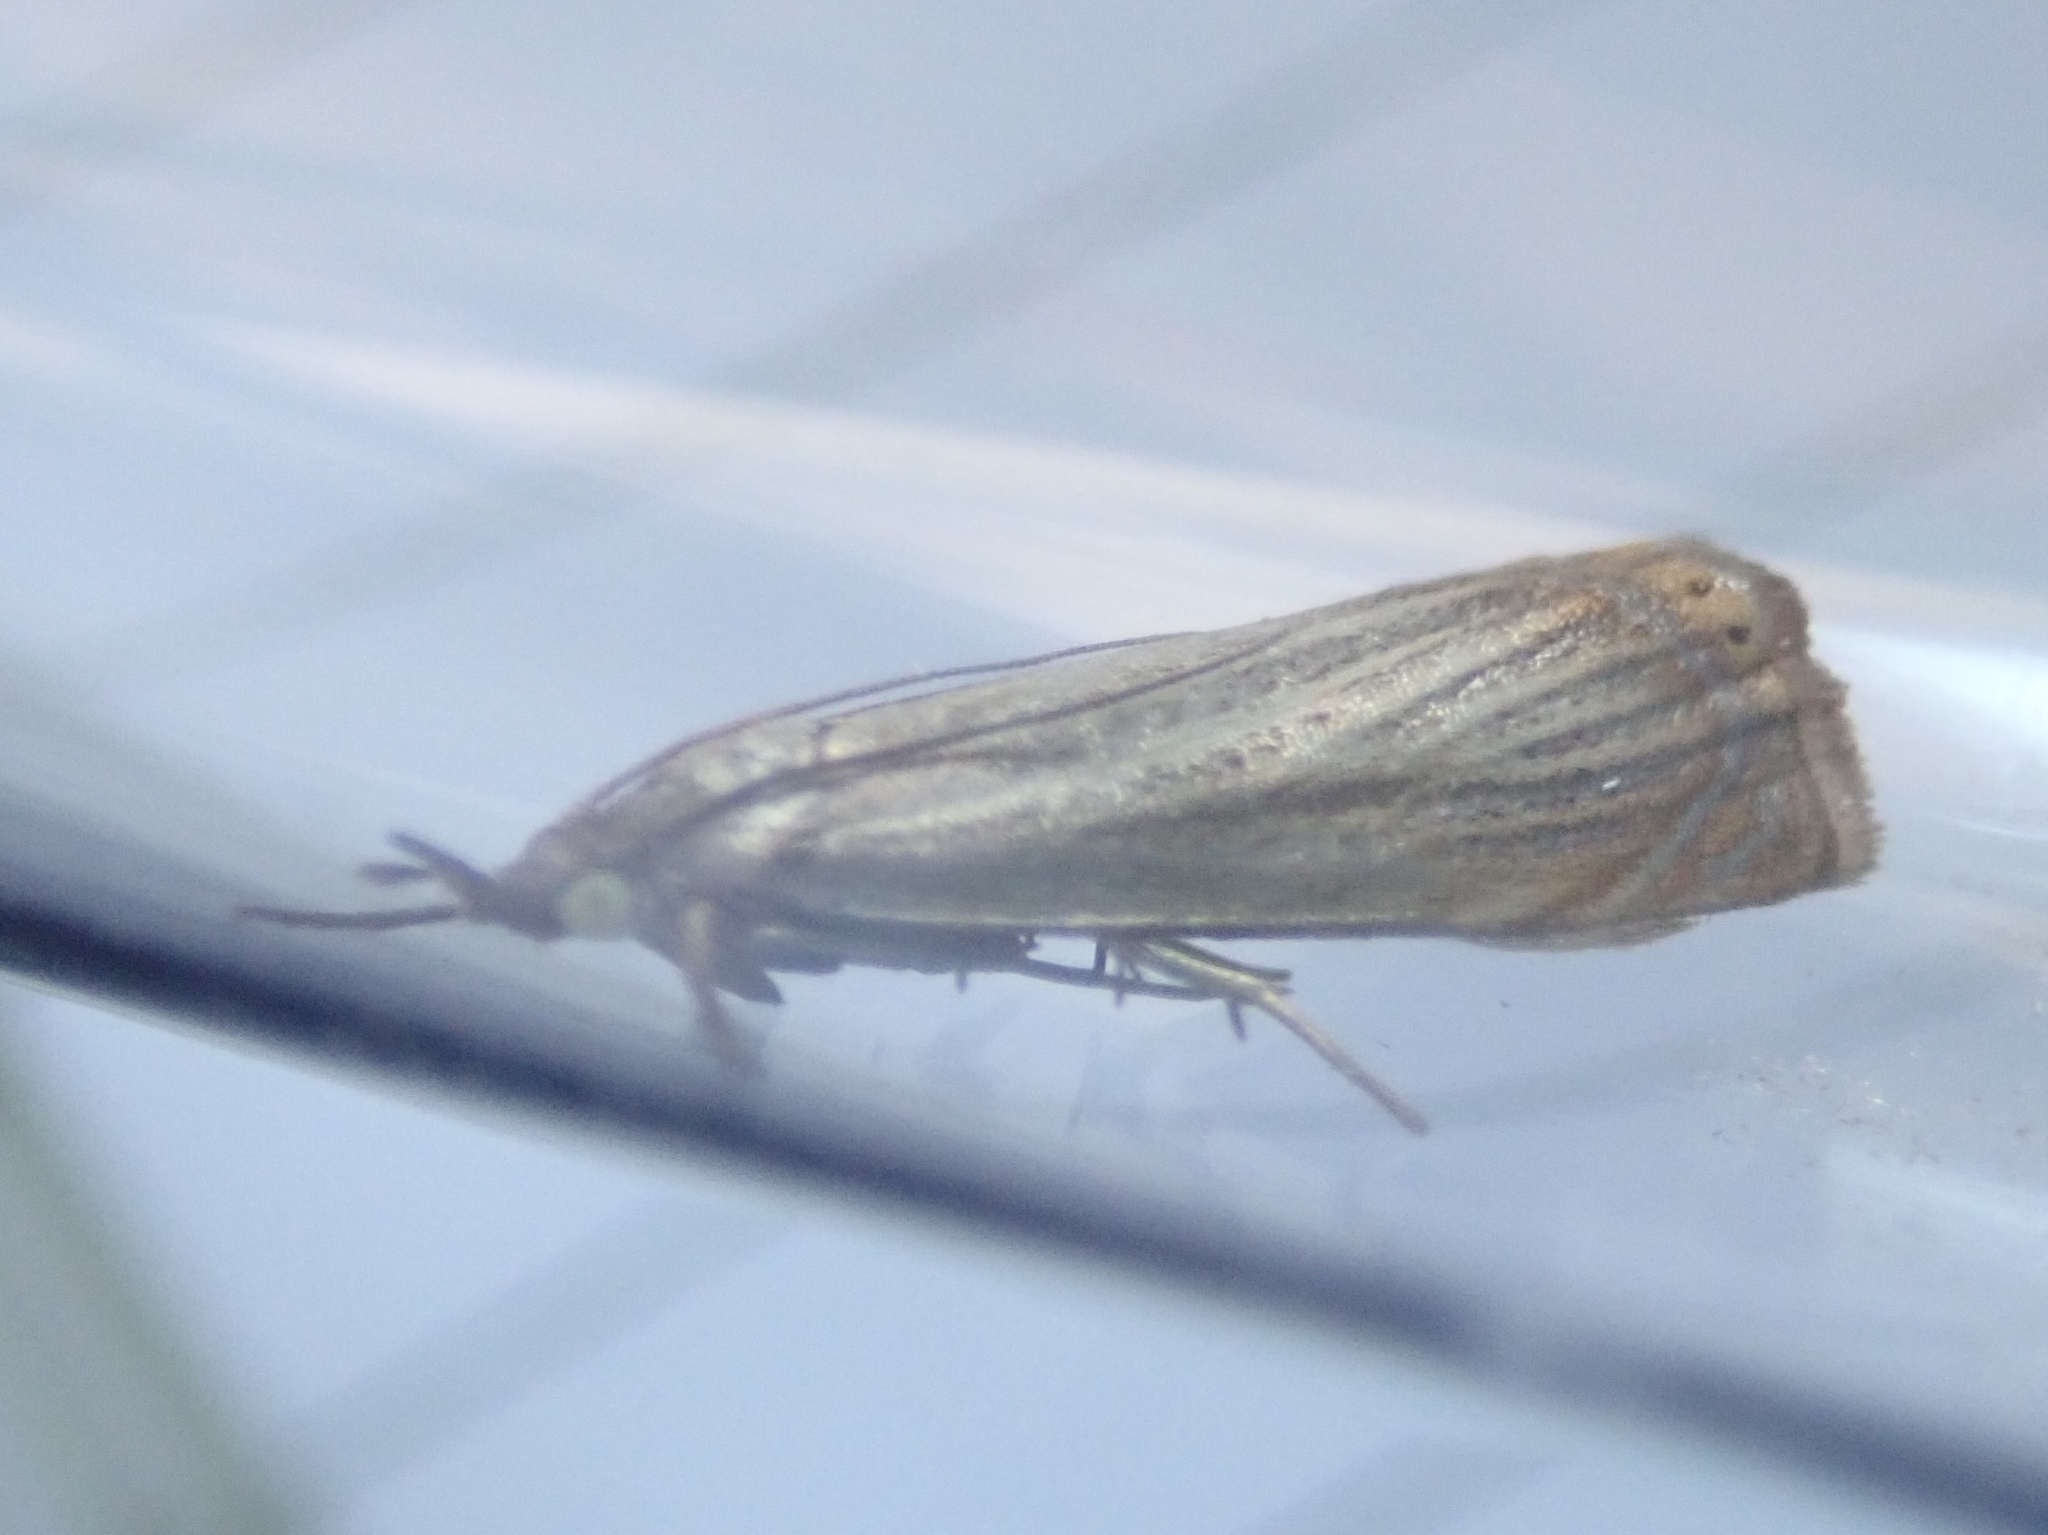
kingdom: Animalia
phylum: Arthropoda
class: Insecta
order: Lepidoptera
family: Crambidae
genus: Chrysoteuchia
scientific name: Chrysoteuchia culmella
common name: Garden grass-veneer
